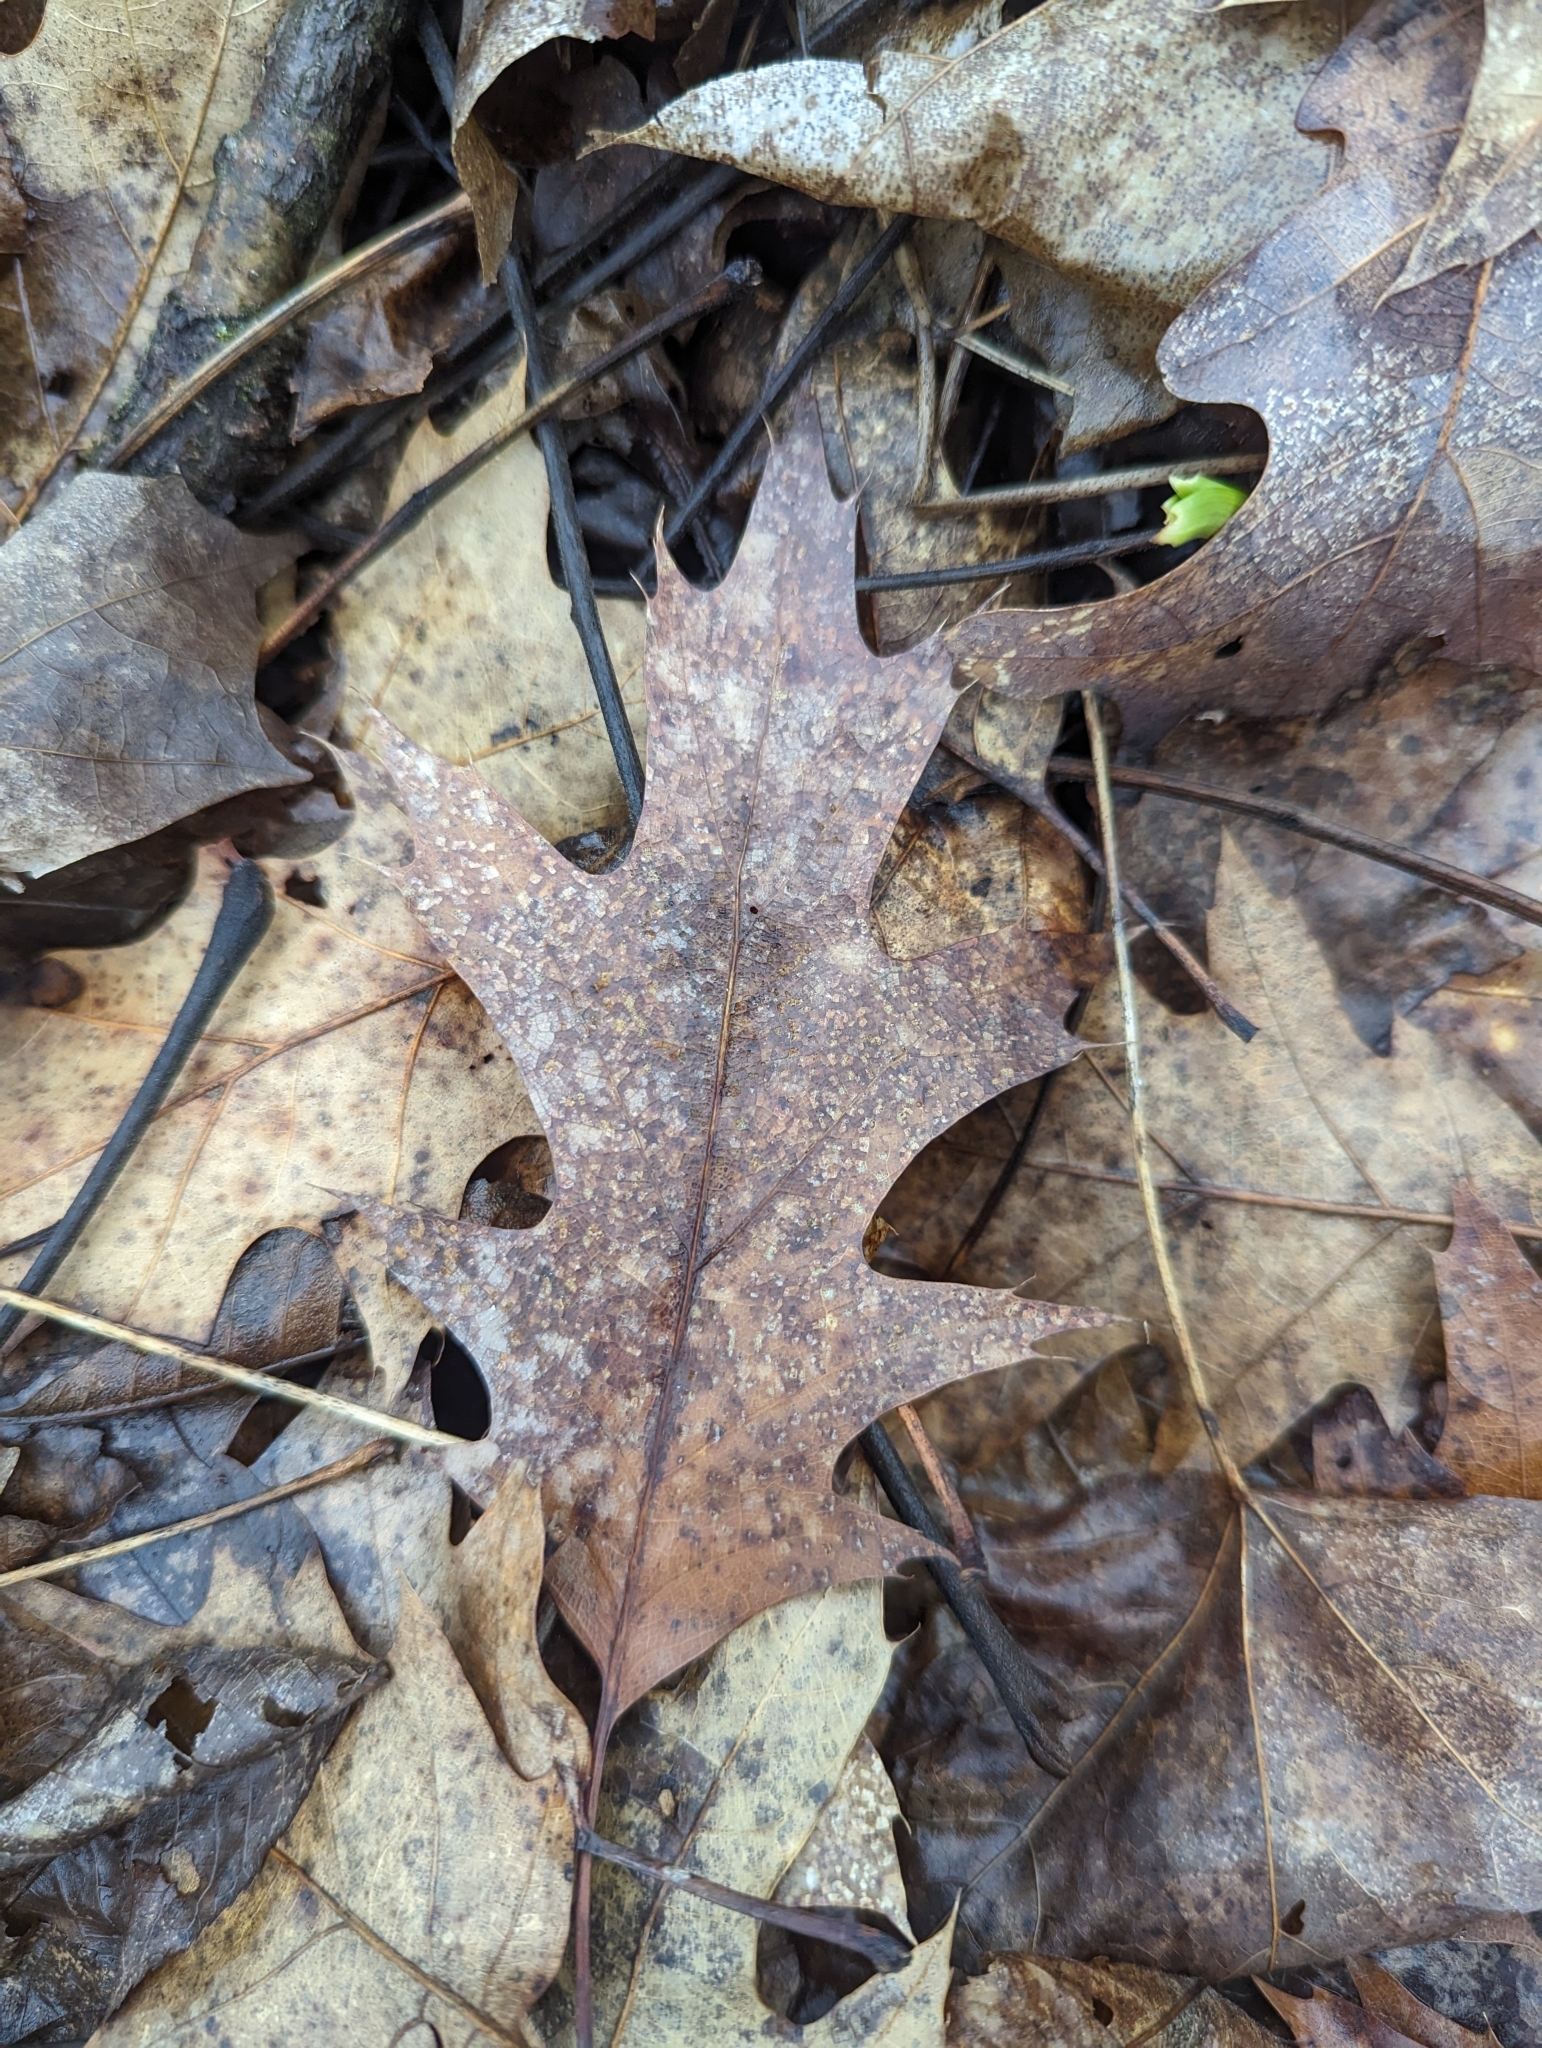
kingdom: Plantae
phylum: Tracheophyta
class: Magnoliopsida
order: Fagales
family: Fagaceae
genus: Quercus
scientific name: Quercus rubra
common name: Red oak
